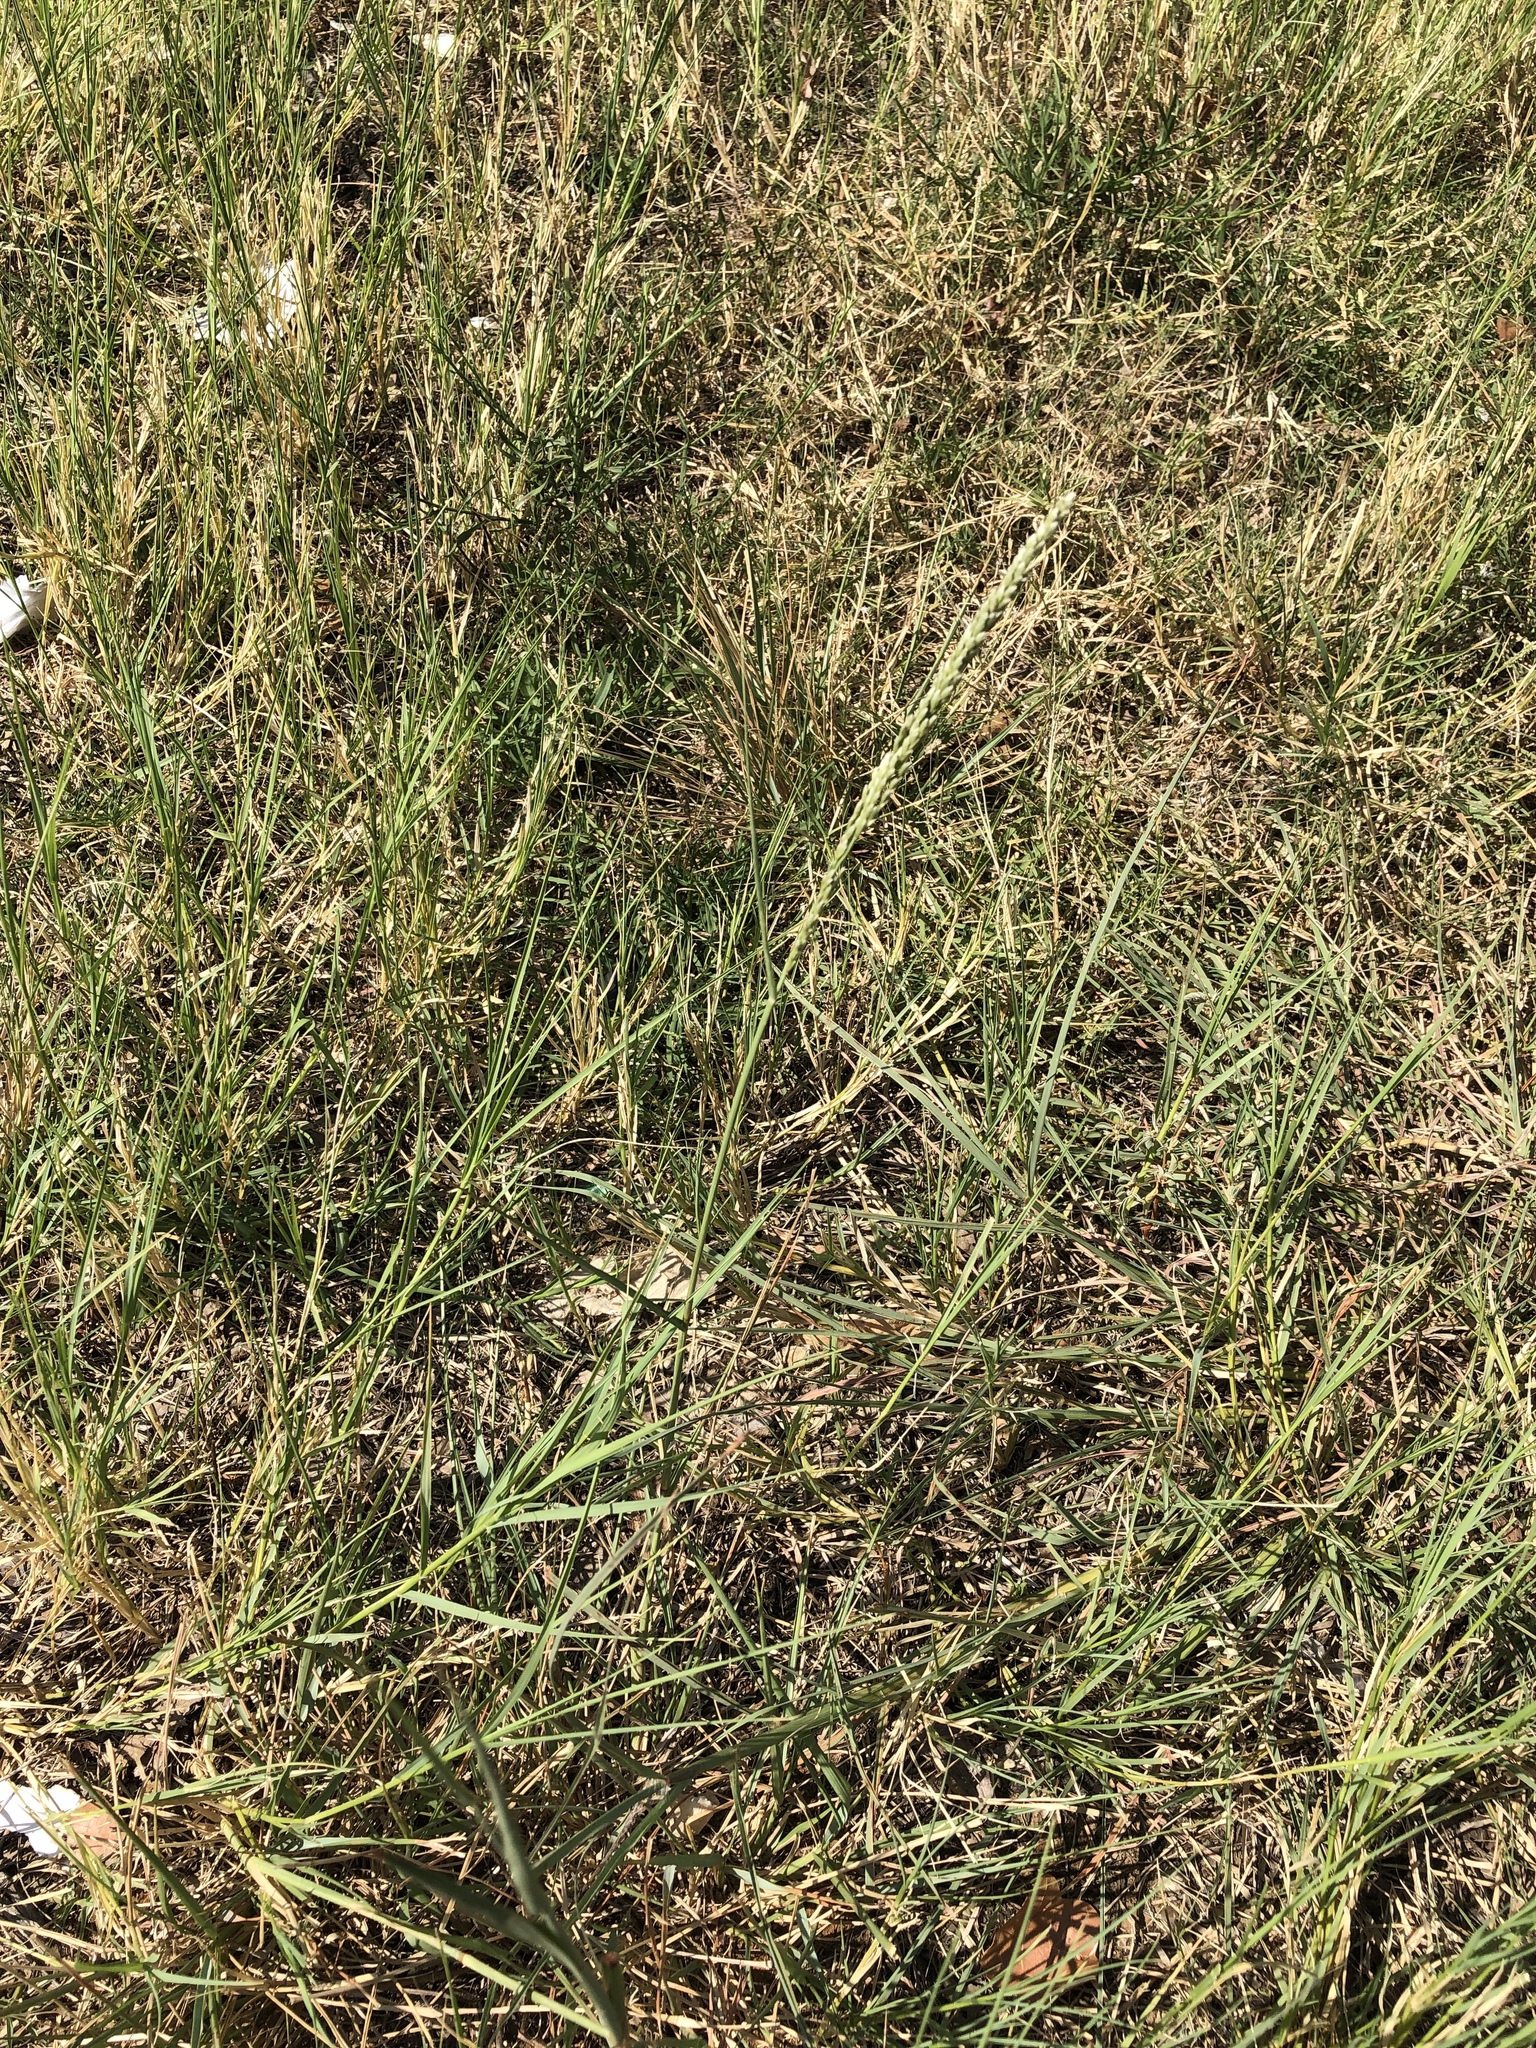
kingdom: Plantae
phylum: Tracheophyta
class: Liliopsida
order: Poales
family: Poaceae
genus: Tridens
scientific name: Tridens albescens
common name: White tridens
